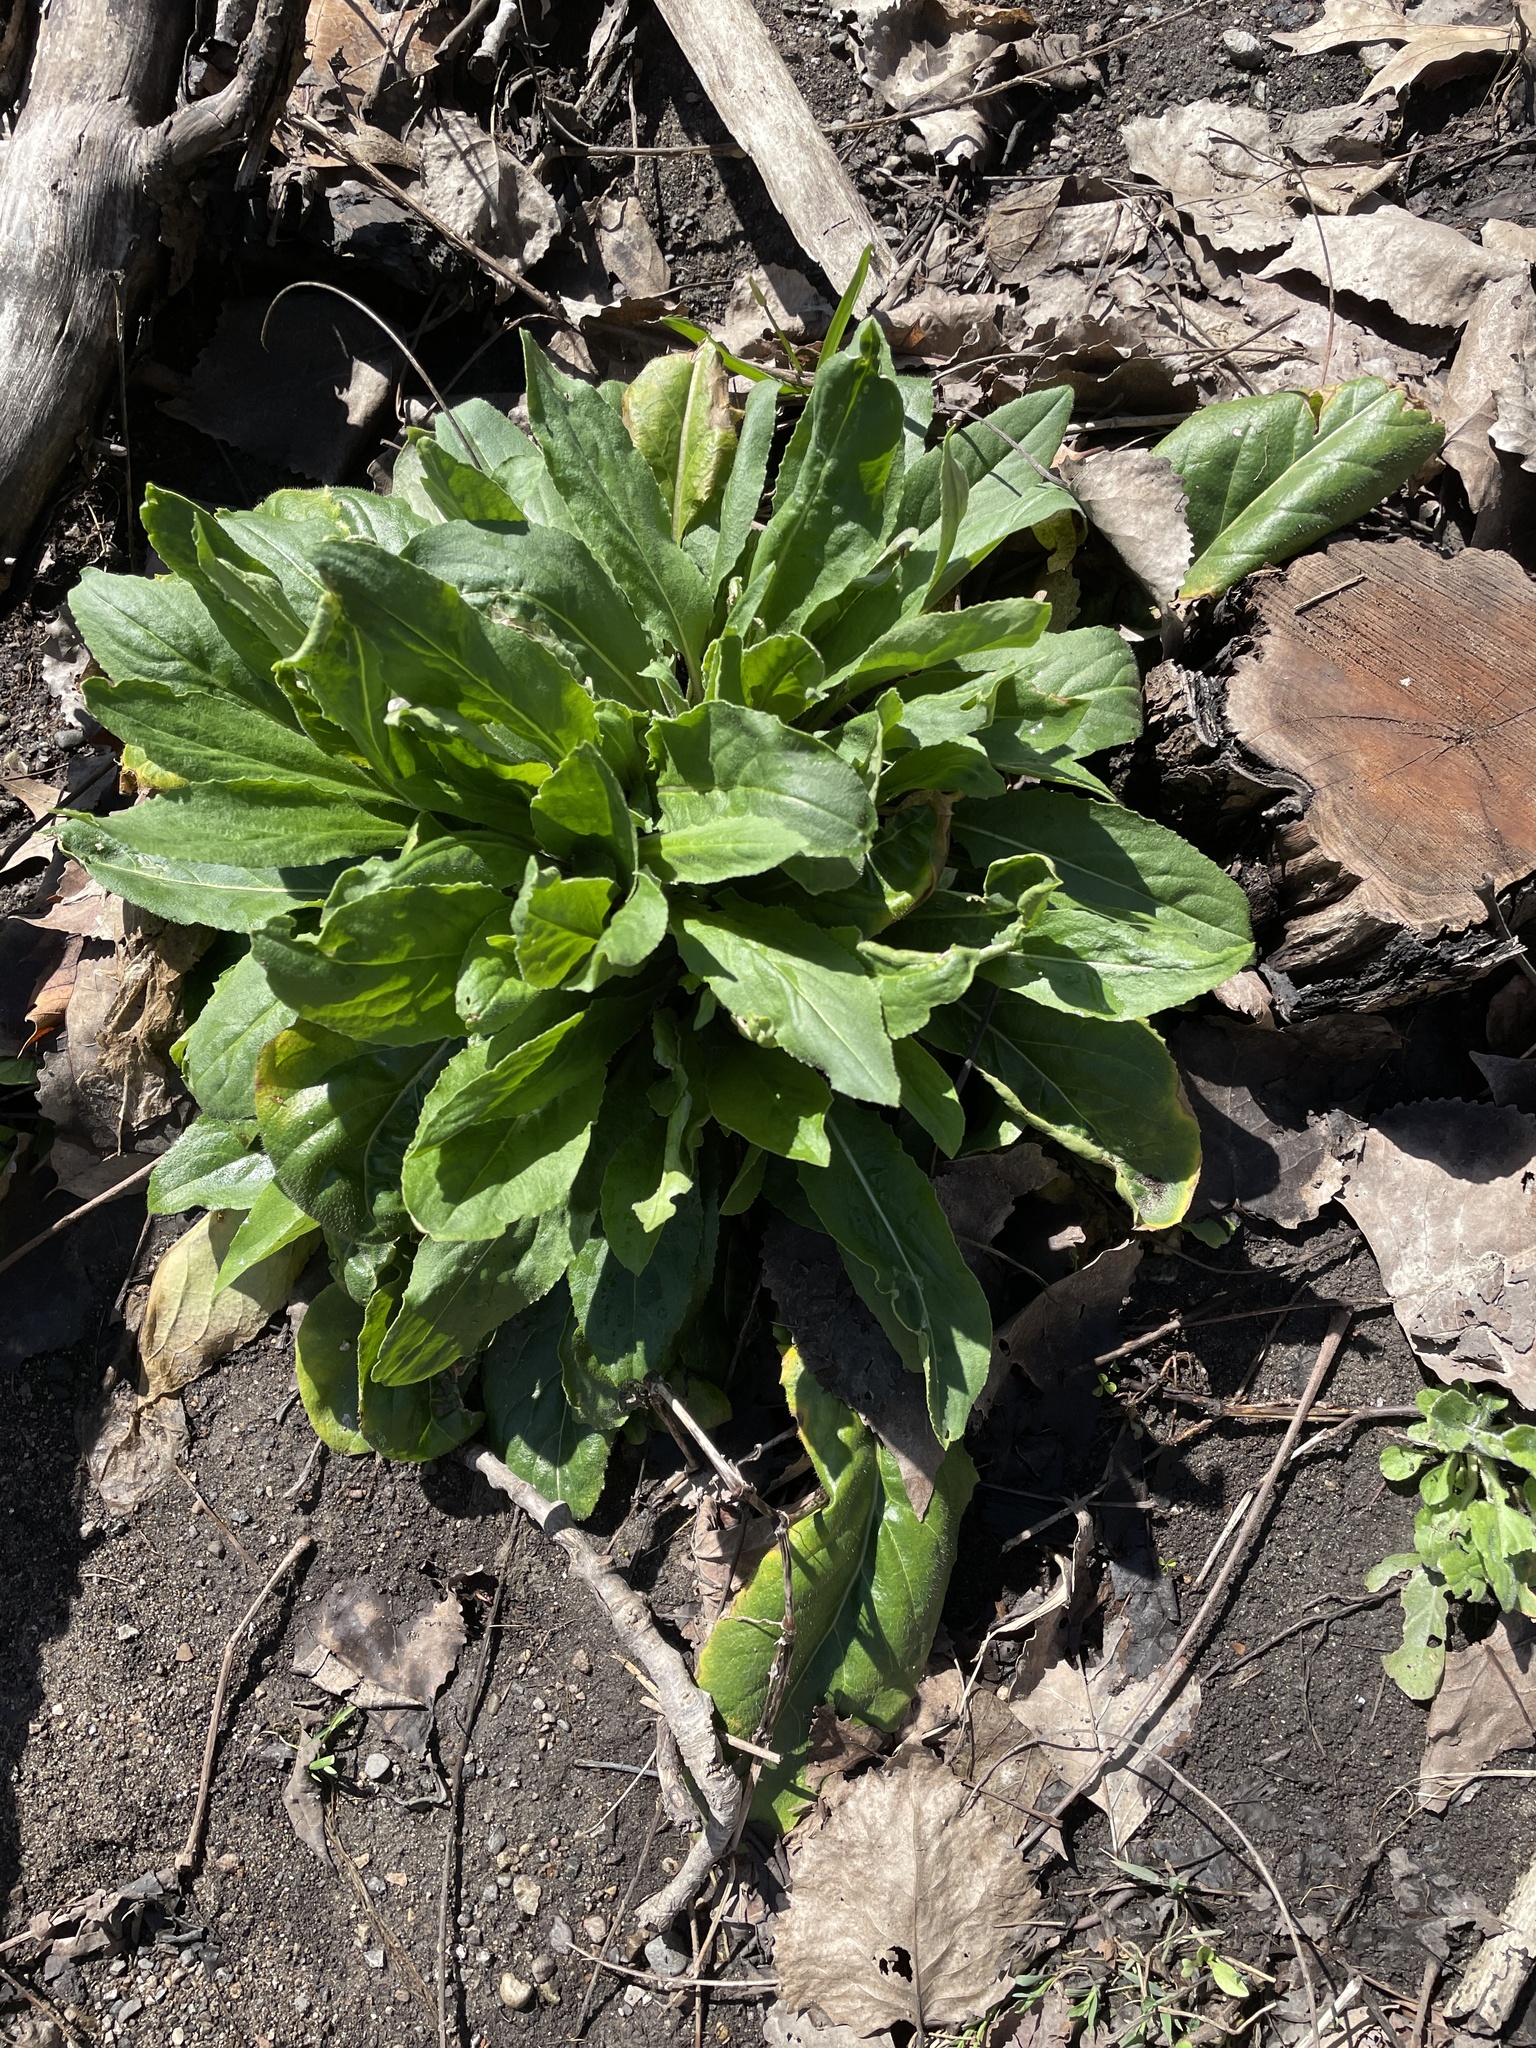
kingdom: Plantae
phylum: Tracheophyta
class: Magnoliopsida
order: Brassicales
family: Brassicaceae
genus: Hesperis
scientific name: Hesperis matronalis
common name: Dame's-violet
